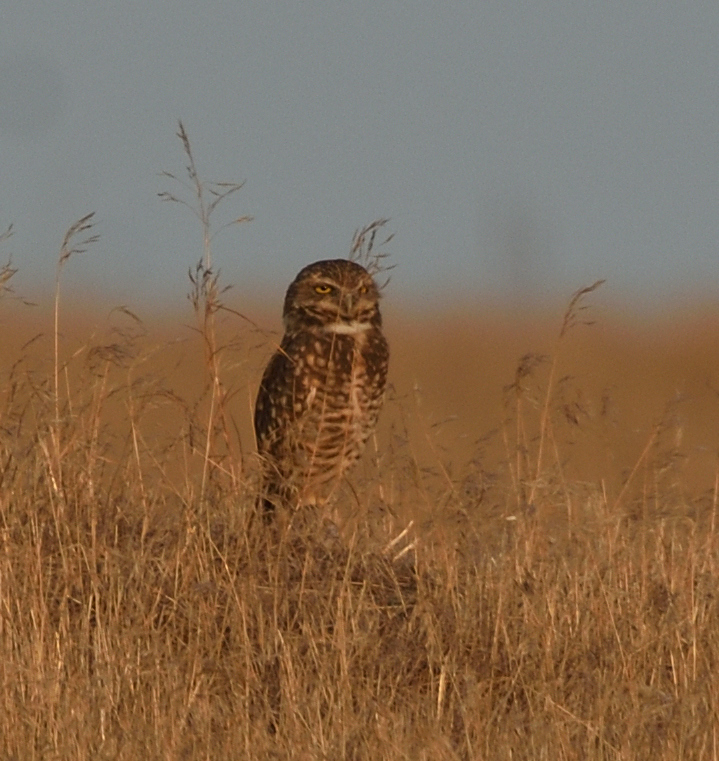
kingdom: Animalia
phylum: Chordata
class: Aves
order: Strigiformes
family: Strigidae
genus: Athene
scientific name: Athene cunicularia
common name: Burrowing owl
